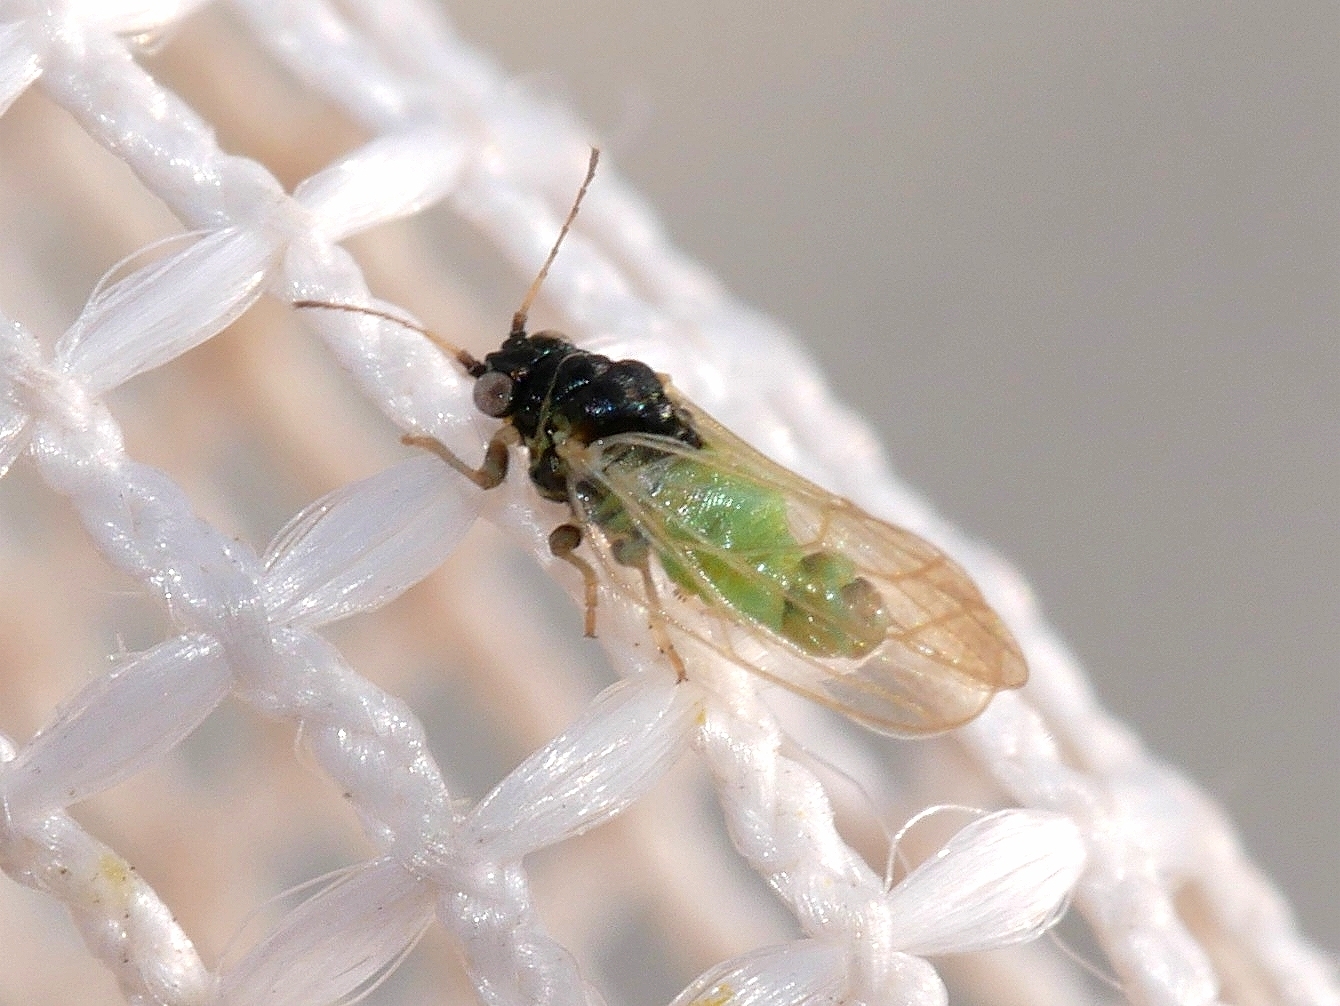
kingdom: Animalia
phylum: Arthropoda
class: Insecta
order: Hemiptera
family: Aphalaridae
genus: Craspedolepta
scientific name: Craspedolepta gutierreziae
